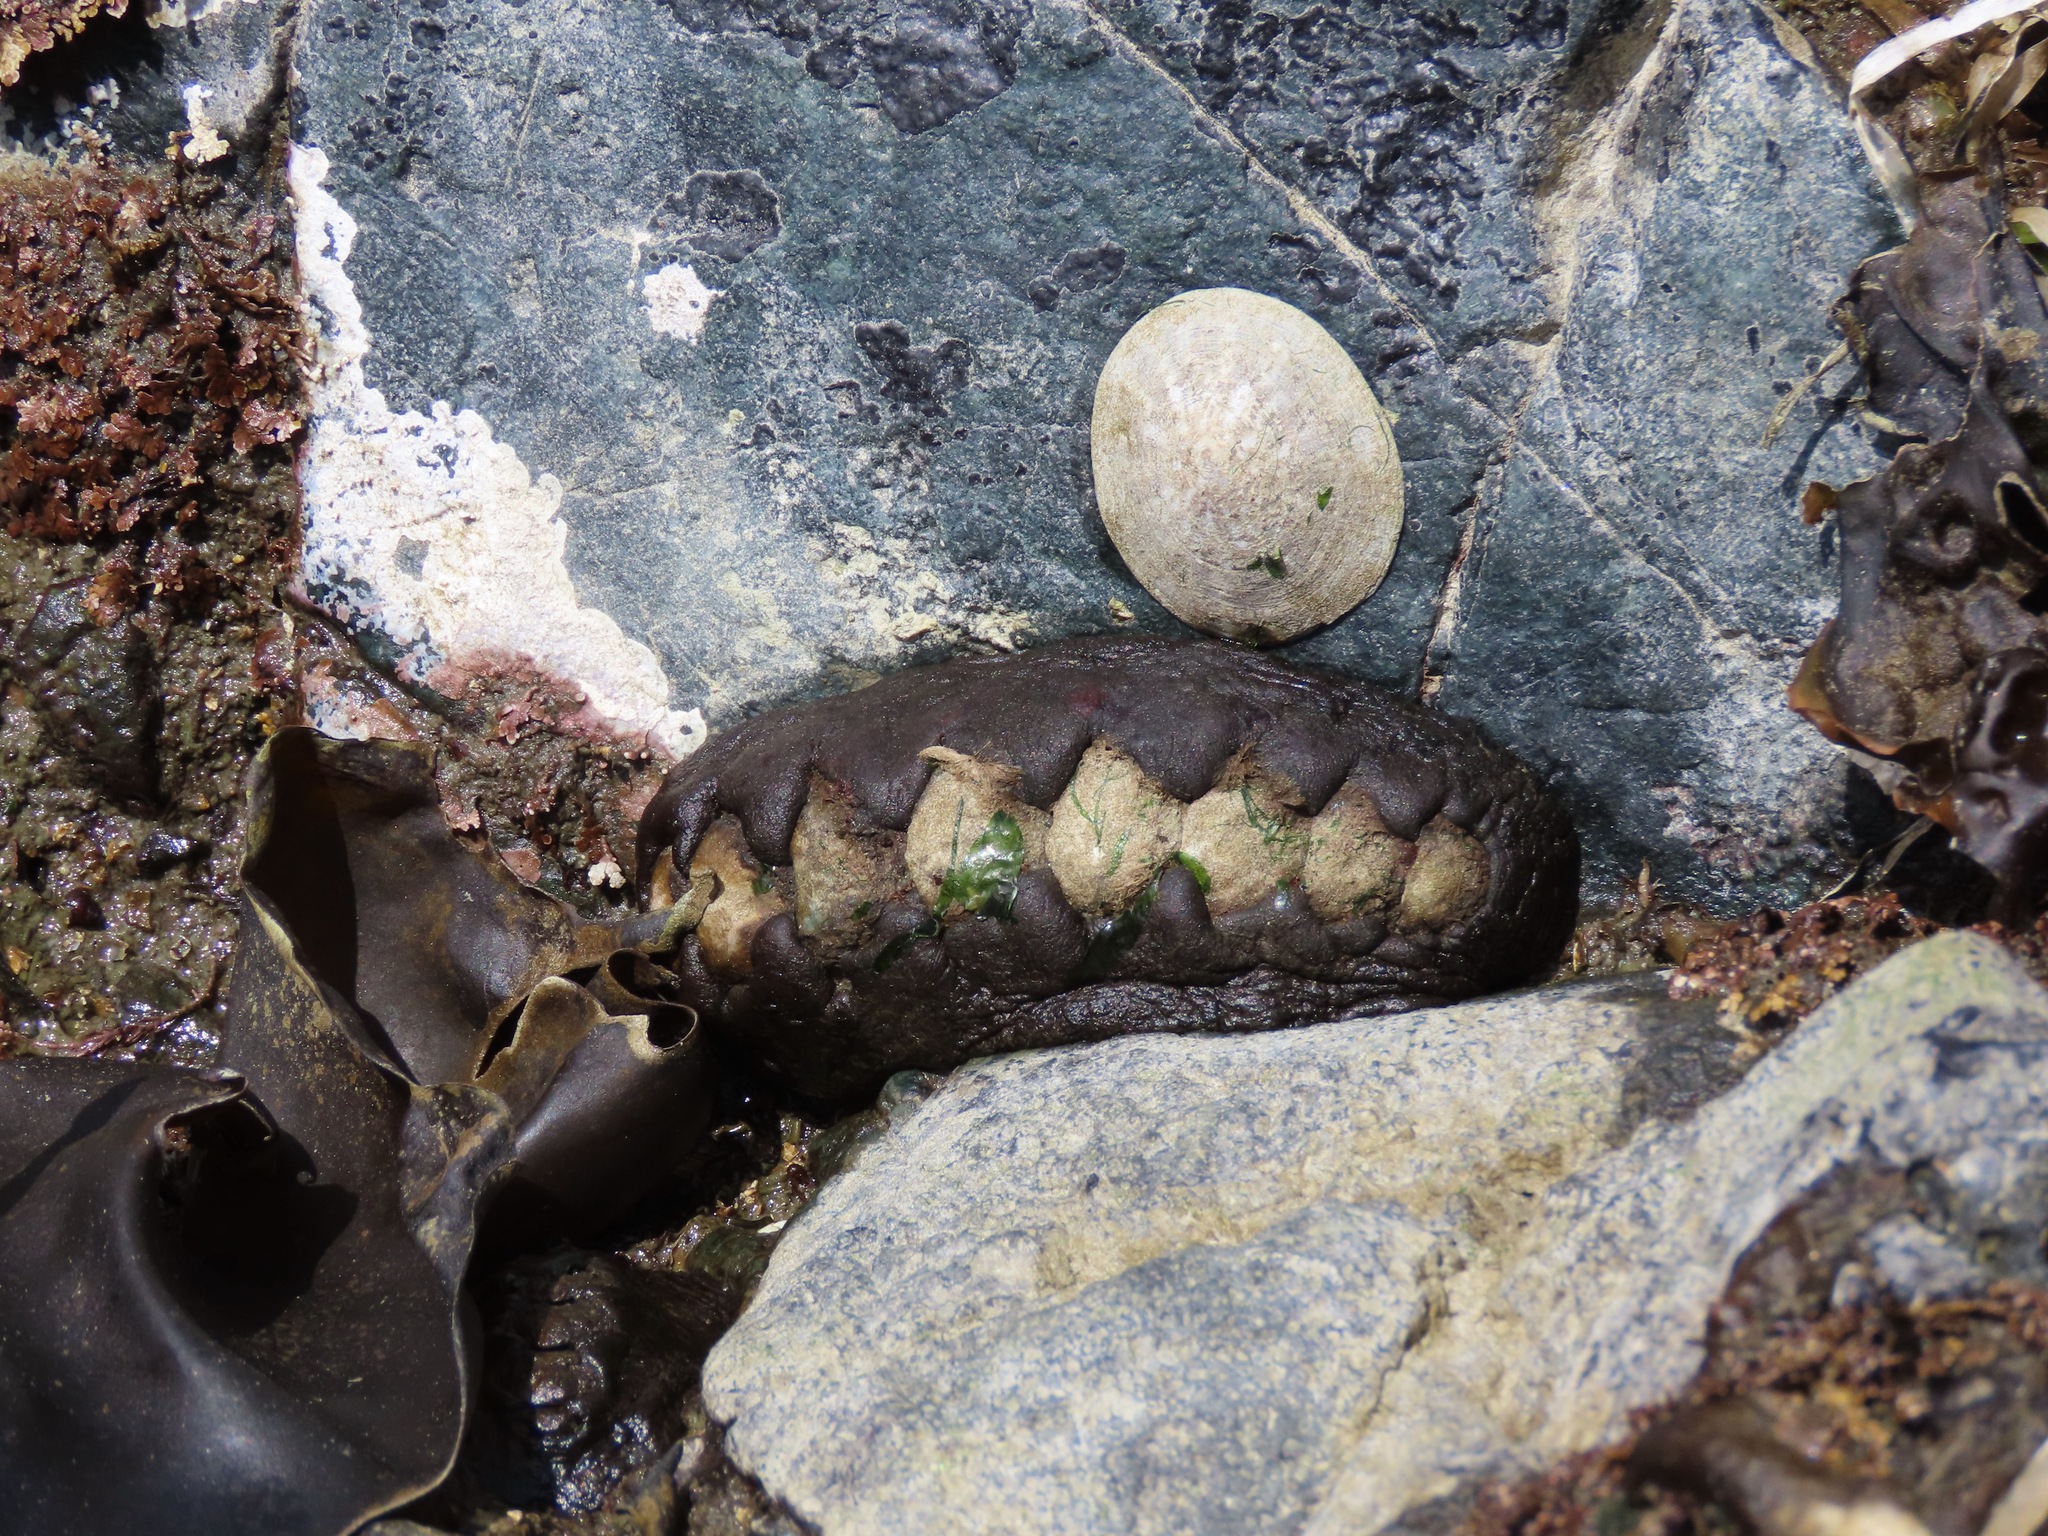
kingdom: Animalia
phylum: Mollusca
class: Polyplacophora
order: Chitonida
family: Mopaliidae
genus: Katharina
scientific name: Katharina tunicata
